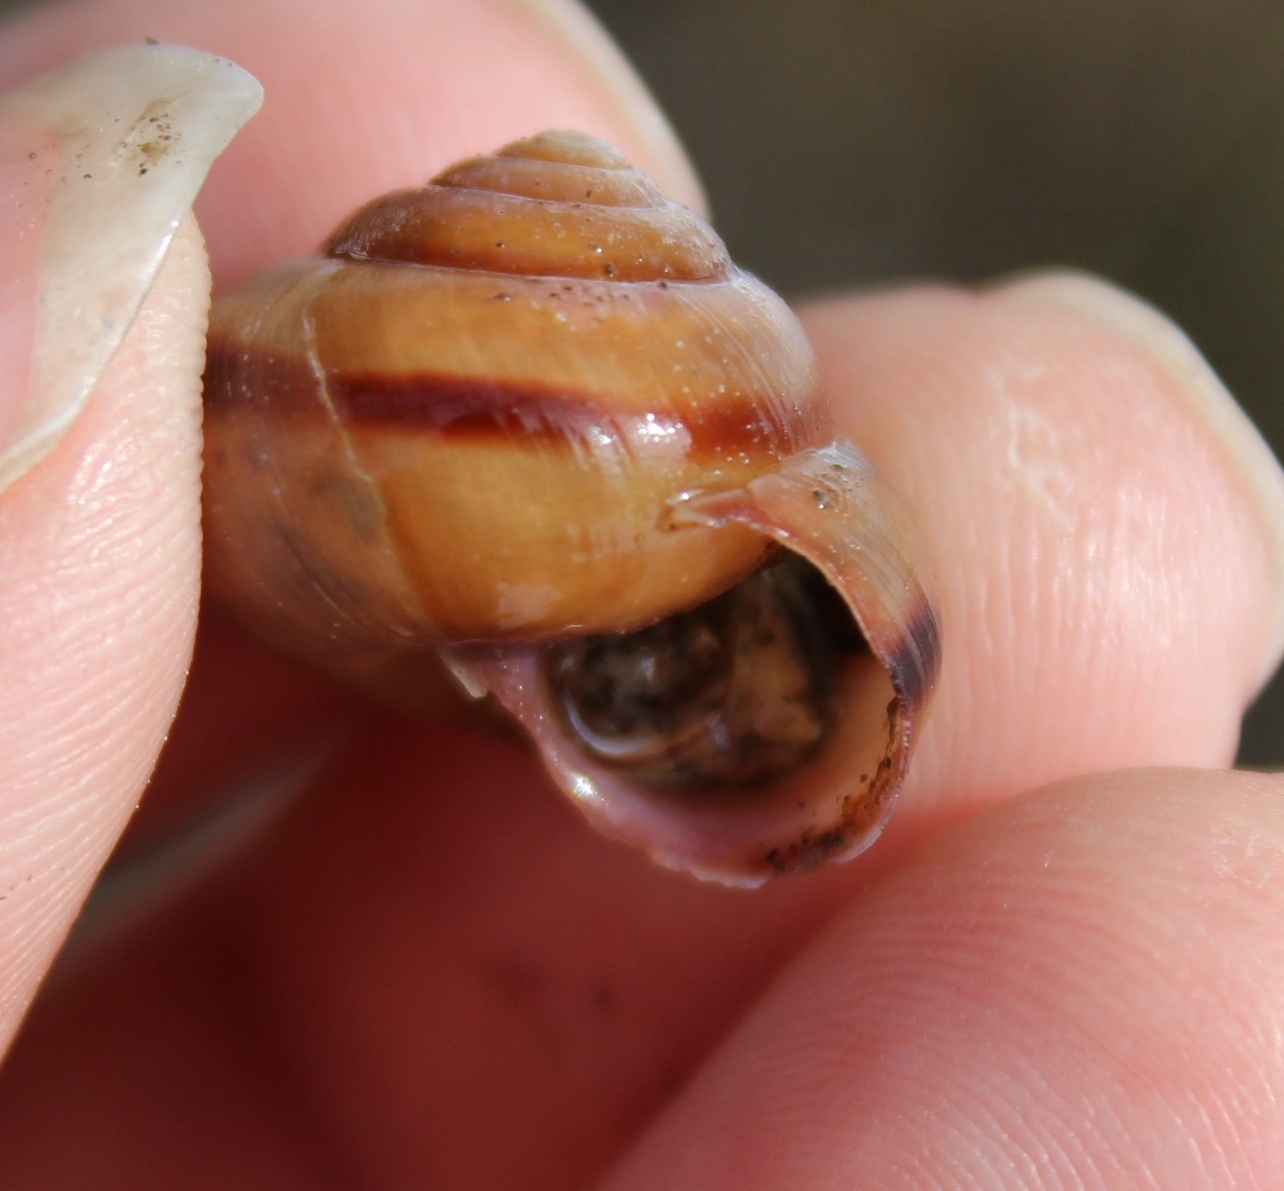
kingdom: Animalia
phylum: Mollusca
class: Gastropoda
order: Stylommatophora
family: Camaenidae
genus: Fruticicola
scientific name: Fruticicola fruticum
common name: Bush snail
